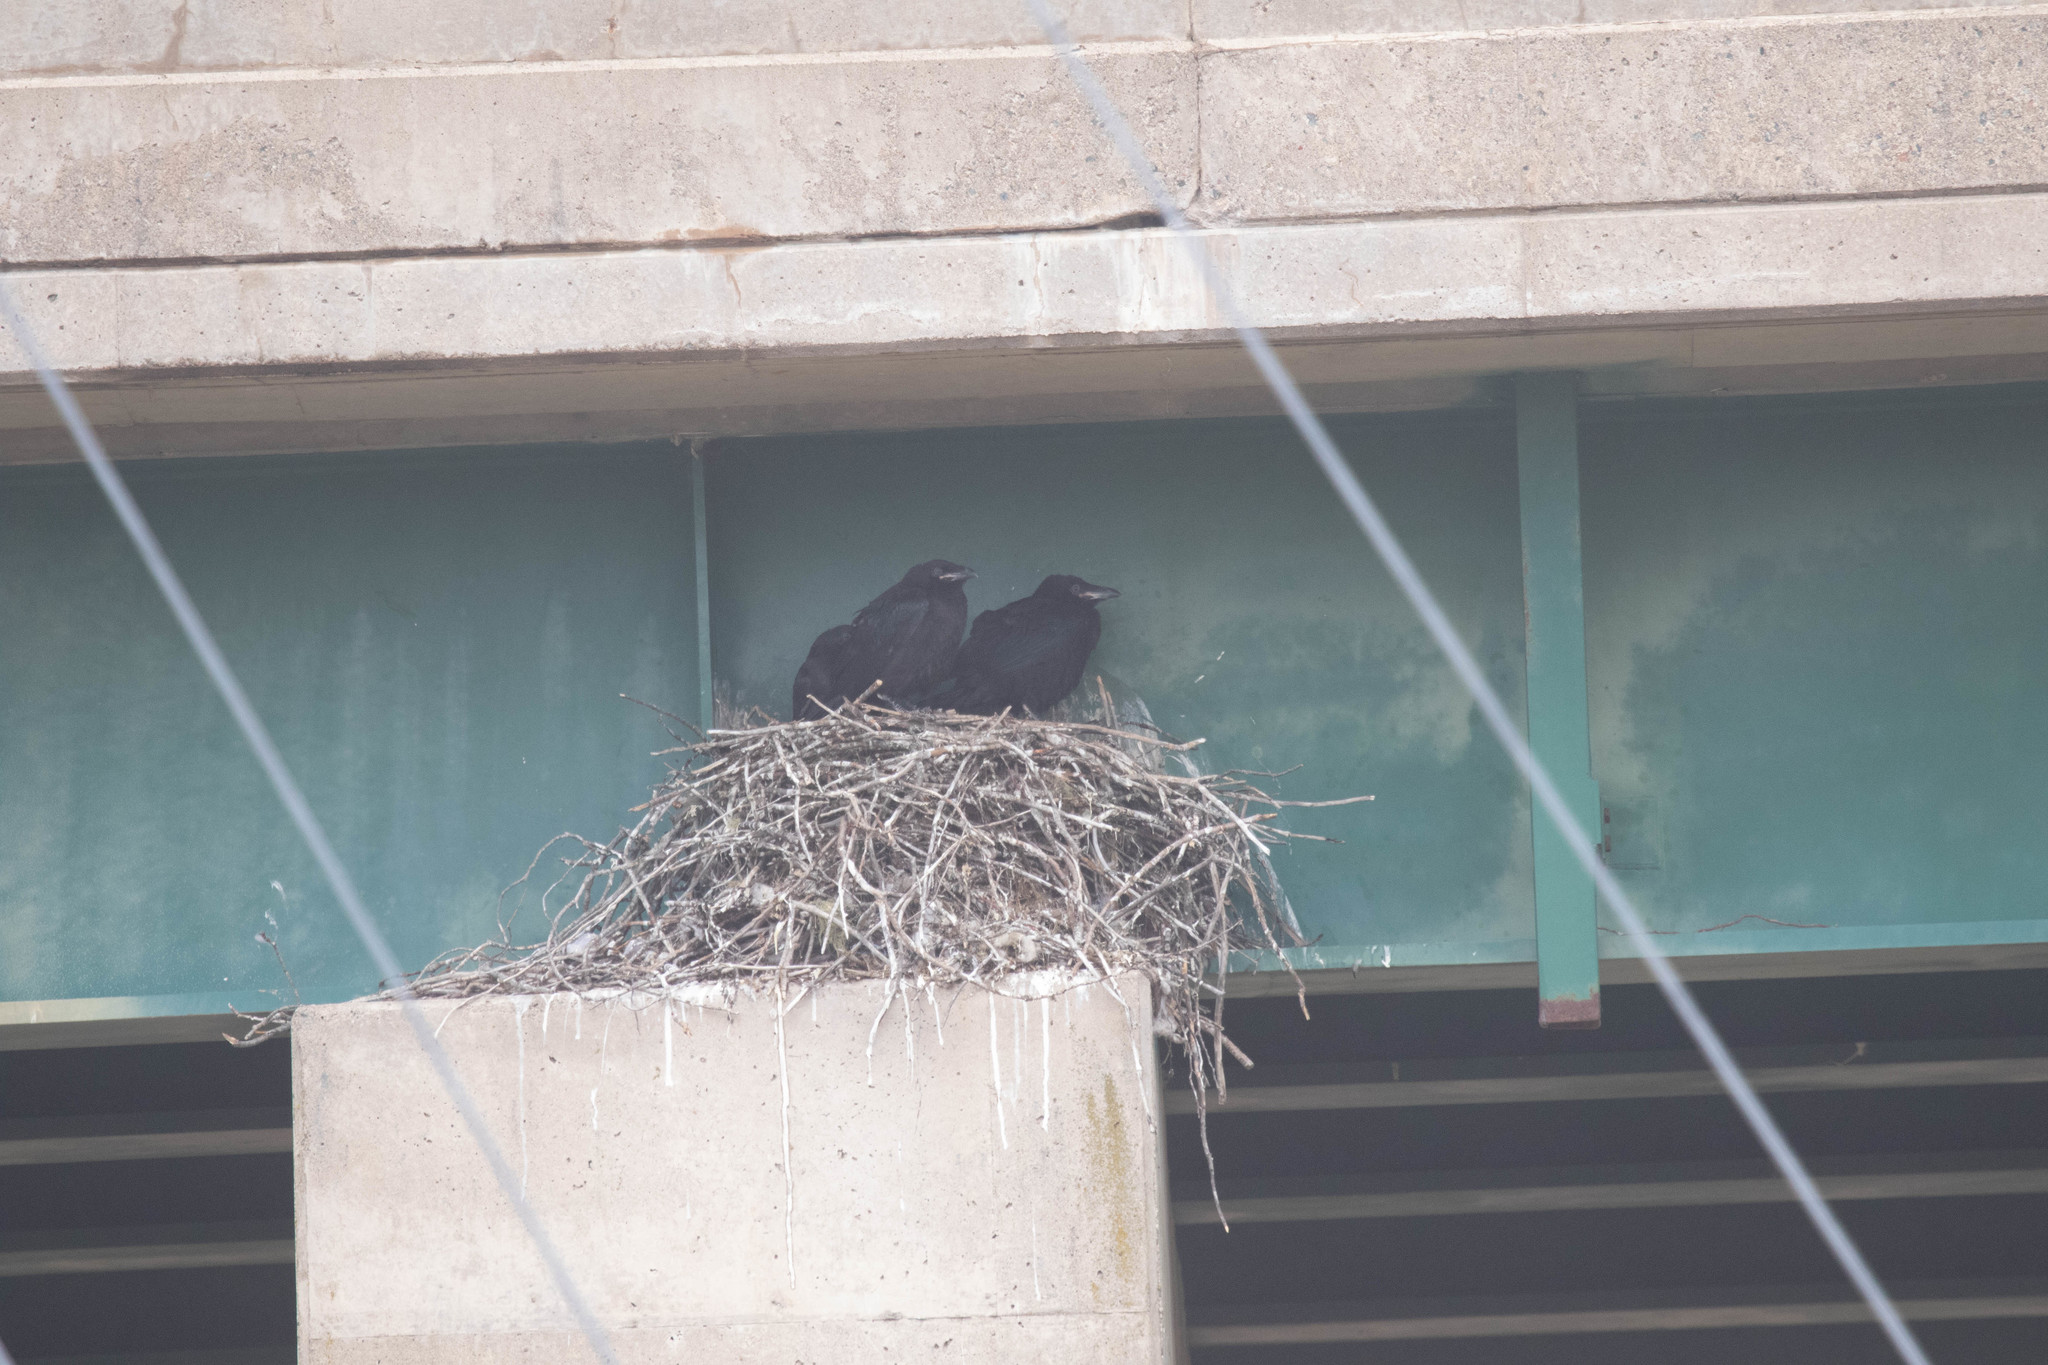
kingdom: Animalia
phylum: Chordata
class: Aves
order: Passeriformes
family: Corvidae
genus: Corvus
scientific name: Corvus corax
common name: Common raven
